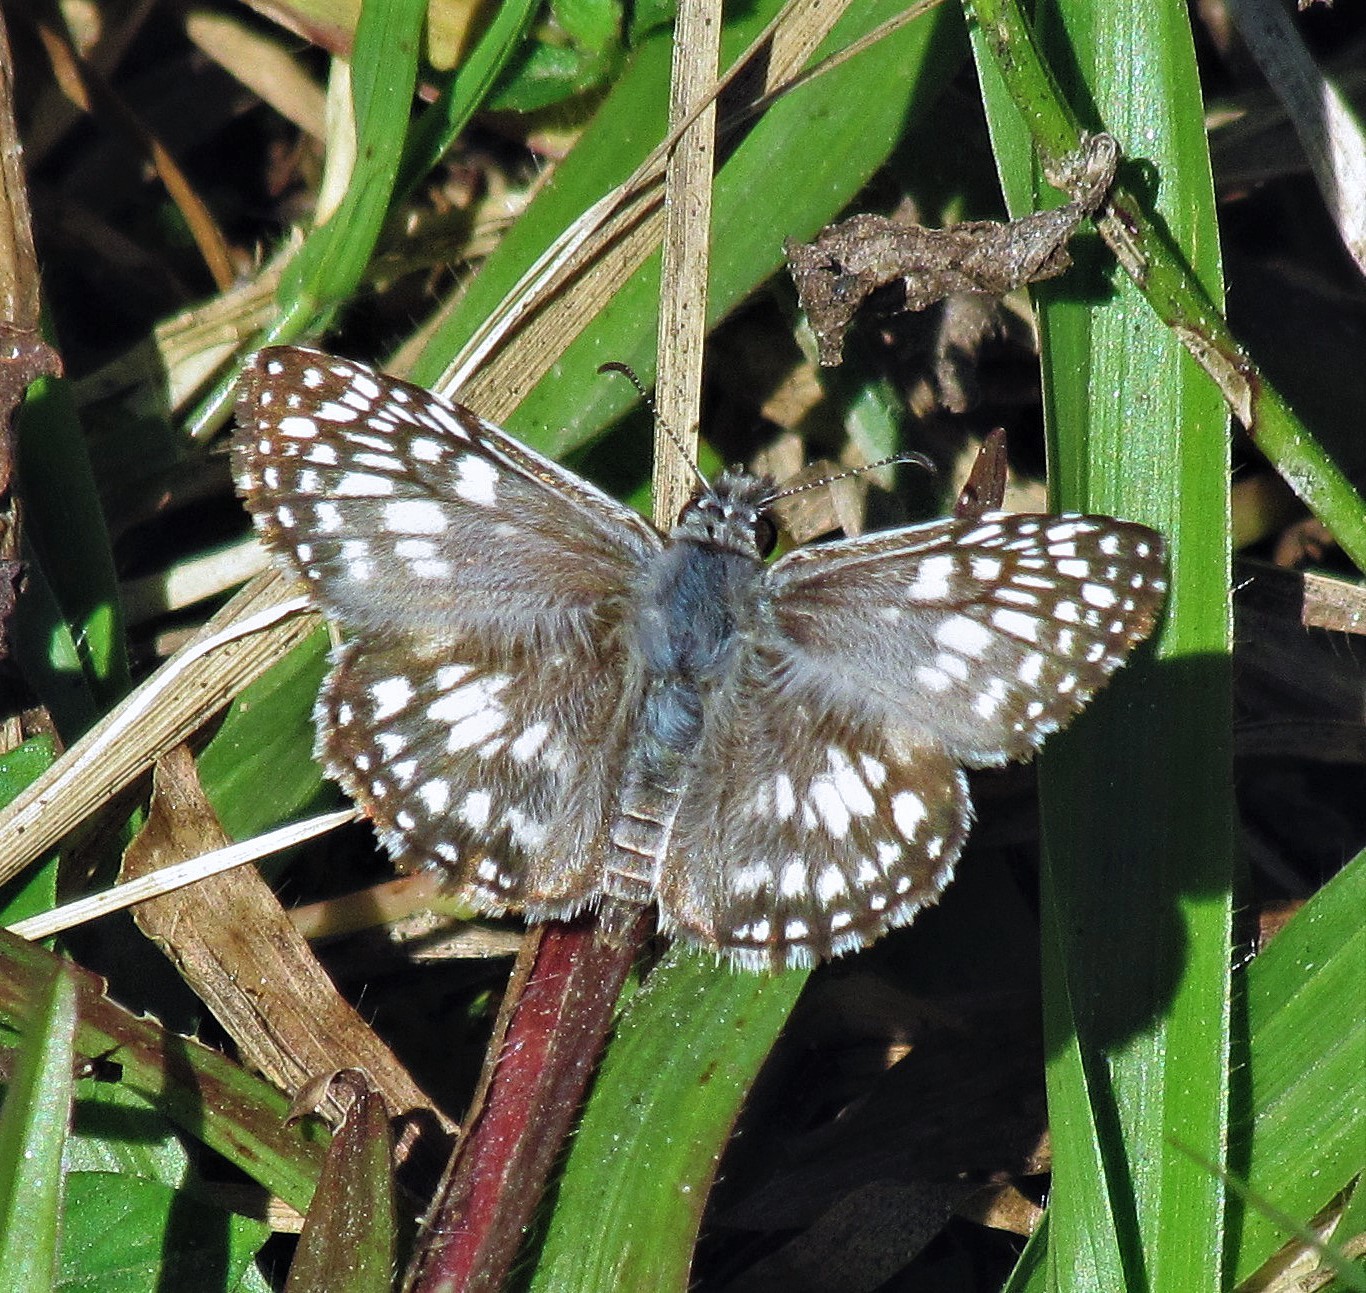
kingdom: Animalia
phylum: Arthropoda
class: Insecta
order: Lepidoptera
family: Hesperiidae
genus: Pyrgus
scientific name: Pyrgus oileus
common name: Tropical checkered-skipper
